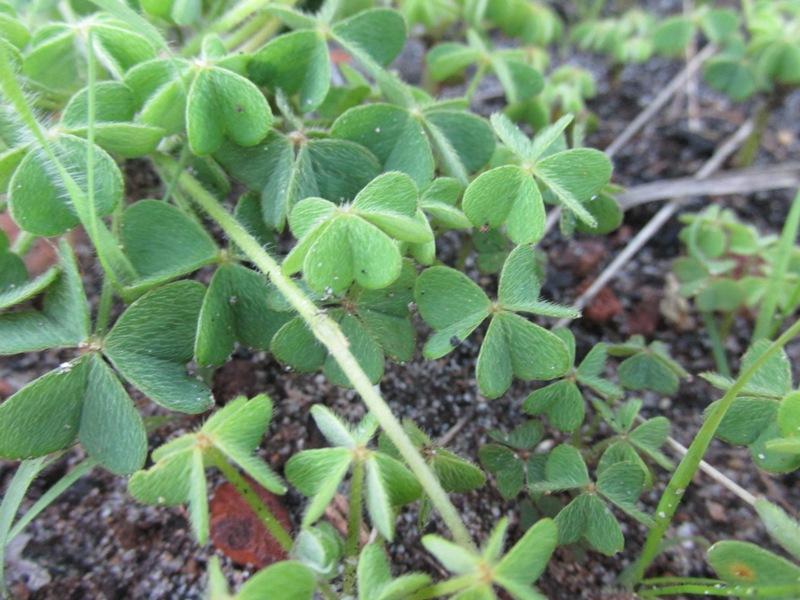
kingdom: Plantae
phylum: Tracheophyta
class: Magnoliopsida
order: Oxalidales
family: Oxalidaceae
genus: Oxalis
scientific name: Oxalis lanata
